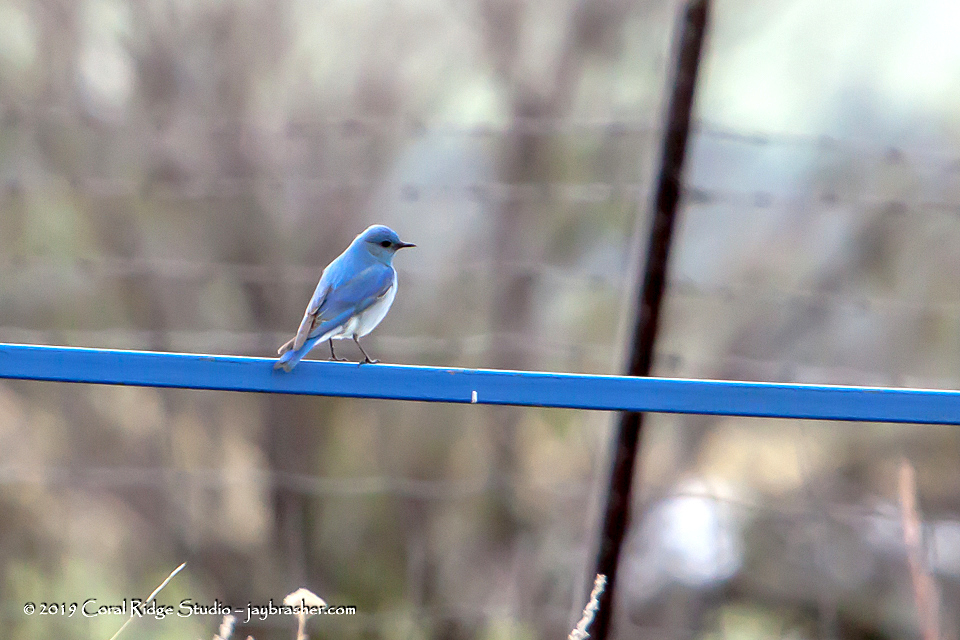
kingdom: Animalia
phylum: Chordata
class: Aves
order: Passeriformes
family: Turdidae
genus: Sialia
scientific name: Sialia currucoides
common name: Mountain bluebird
